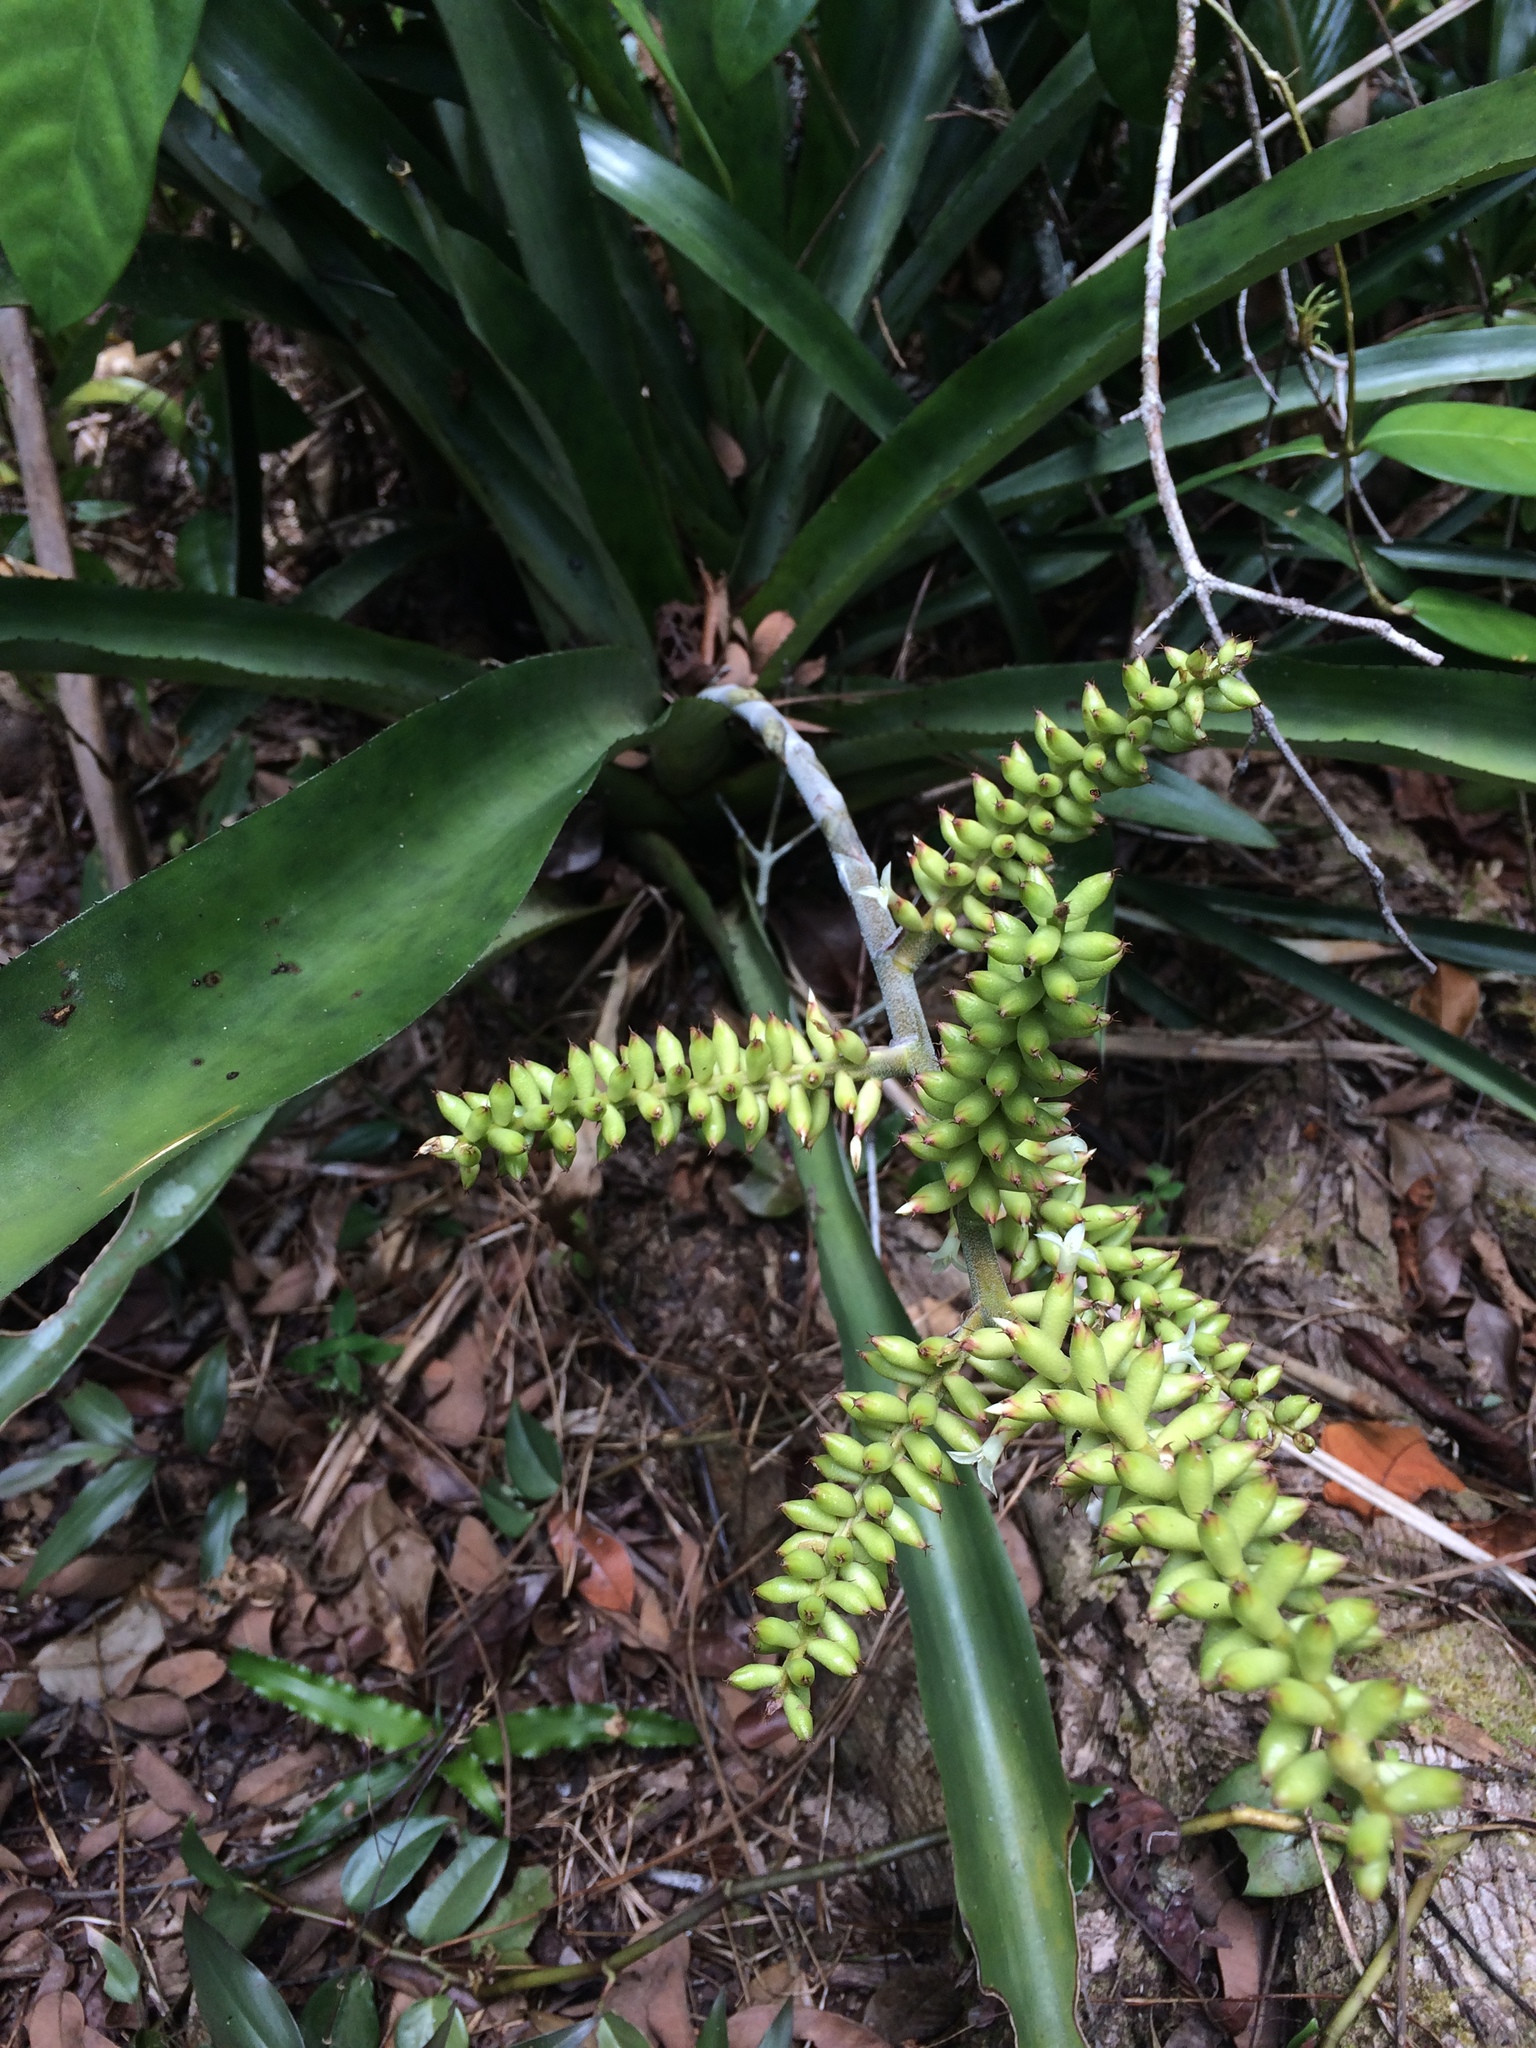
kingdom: Plantae
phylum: Tracheophyta
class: Liliopsida
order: Poales
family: Bromeliaceae
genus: Wittmackia
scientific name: Wittmackia patentissima
